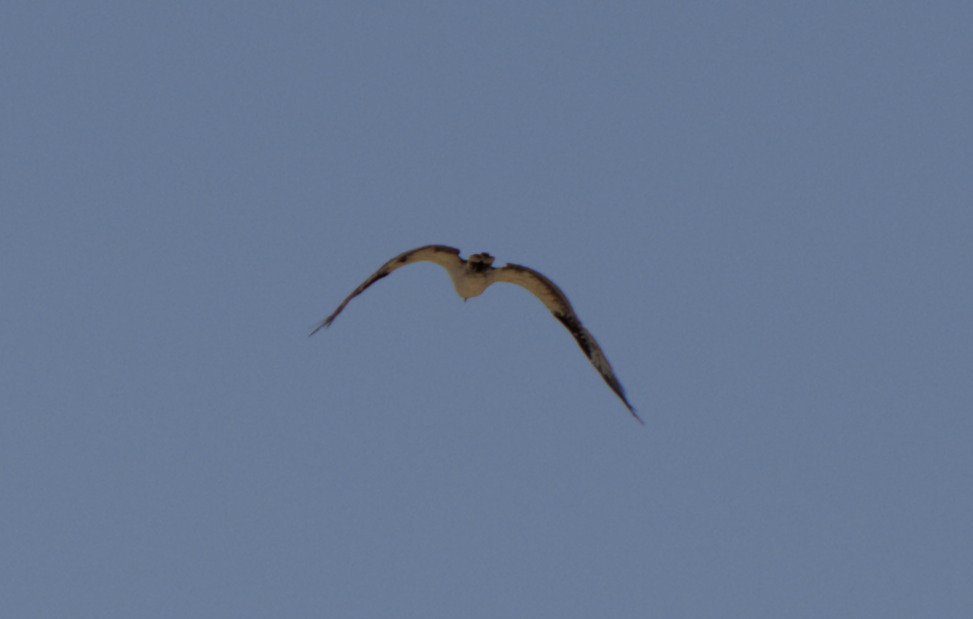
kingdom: Animalia
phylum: Chordata
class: Aves
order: Accipitriformes
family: Pandionidae
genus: Pandion
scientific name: Pandion haliaetus
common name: Osprey
